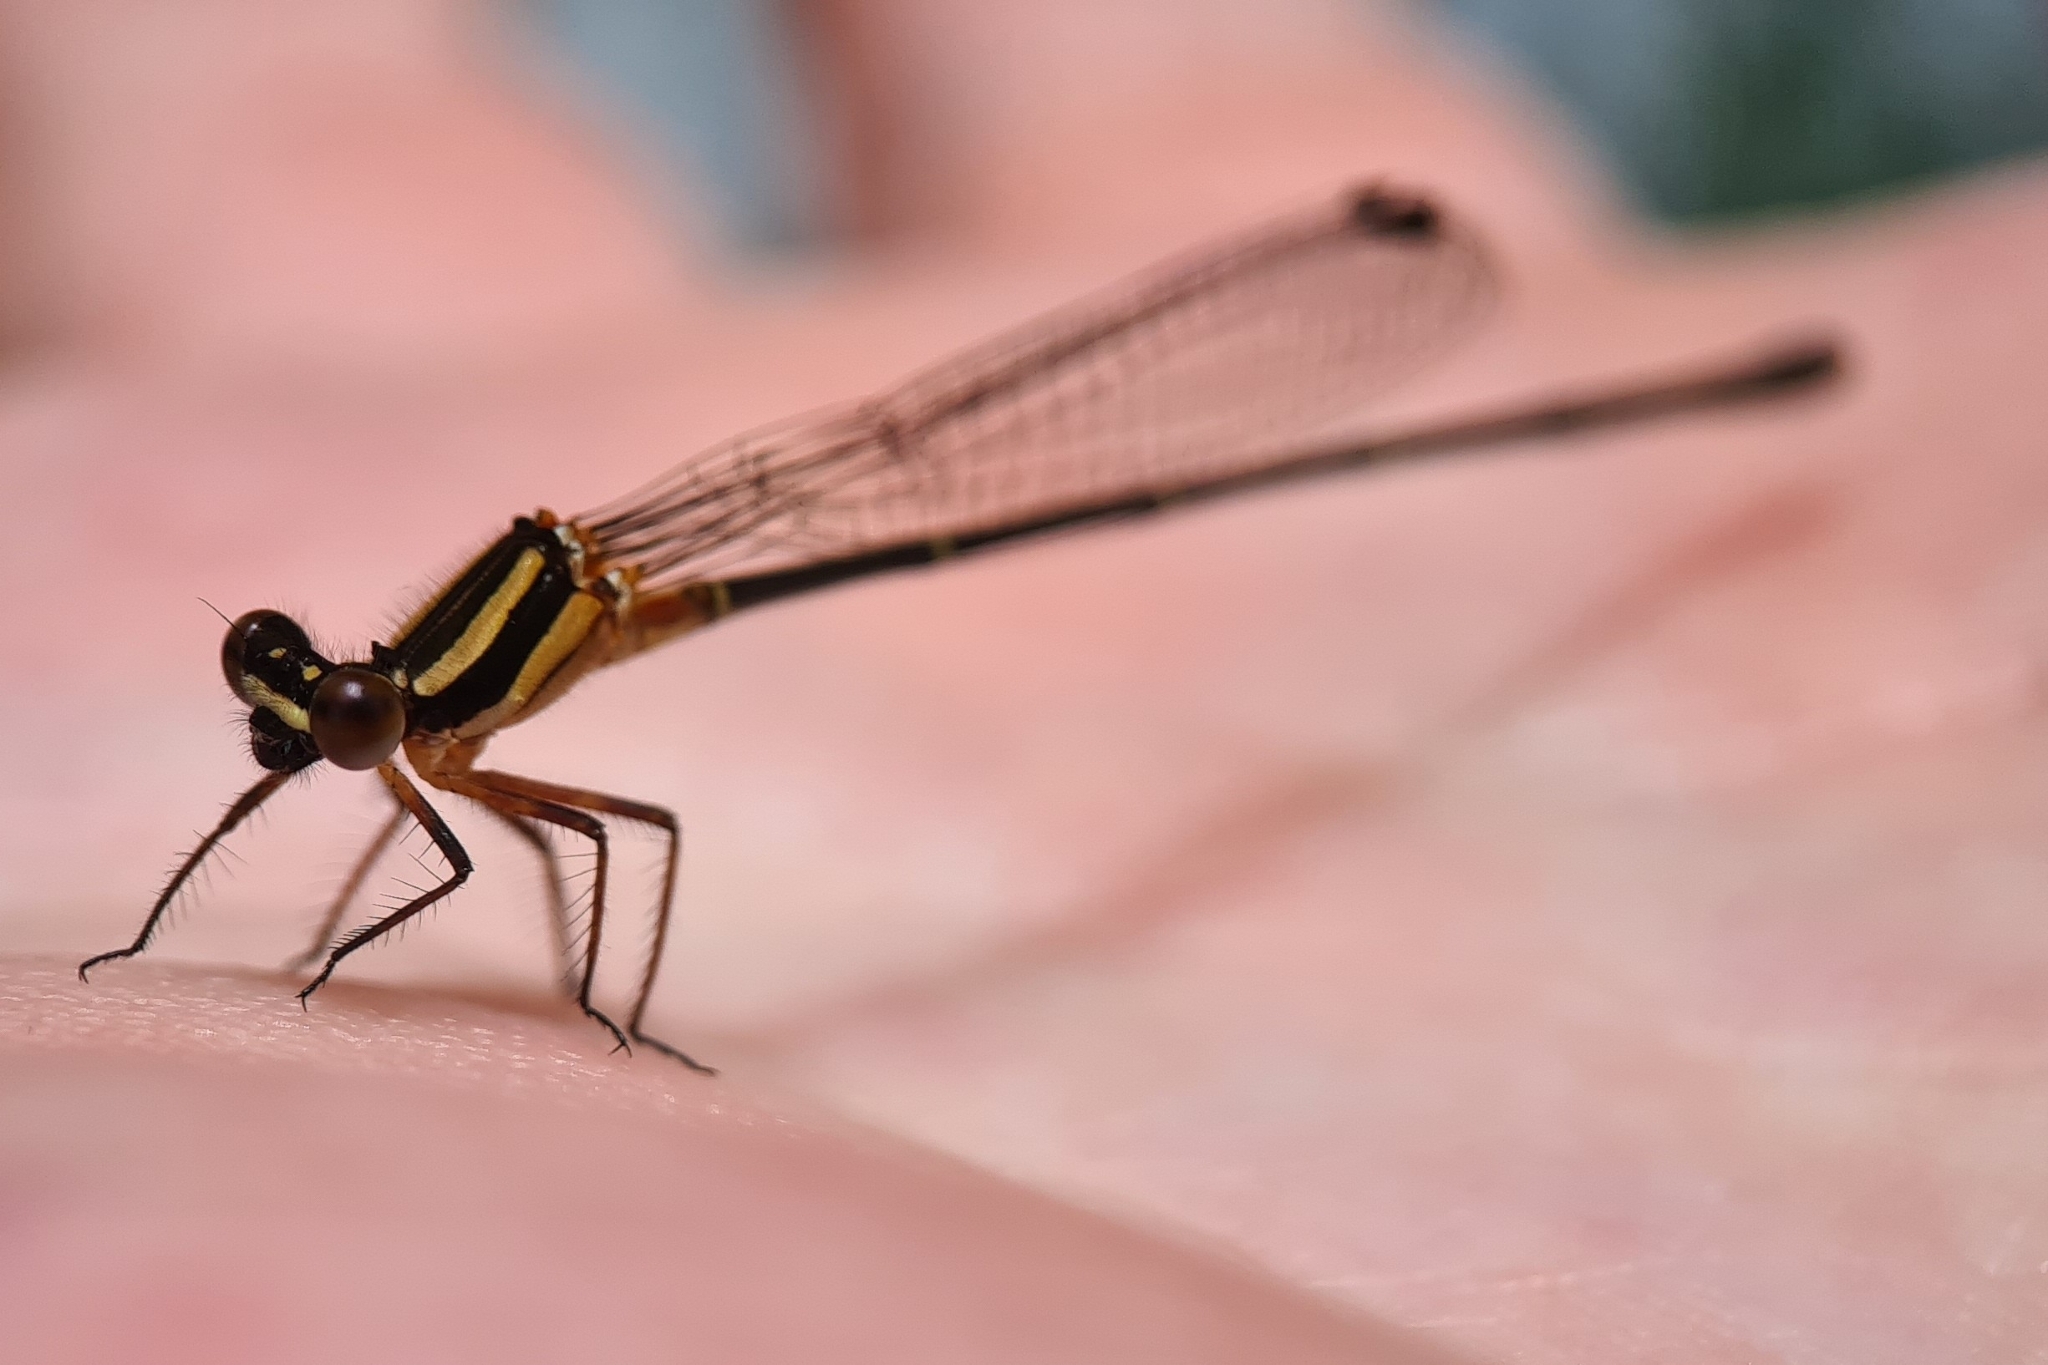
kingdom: Animalia
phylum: Arthropoda
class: Insecta
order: Odonata
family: Platycnemididae
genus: Nososticta
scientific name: Nososticta solida
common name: Orange threadtail
